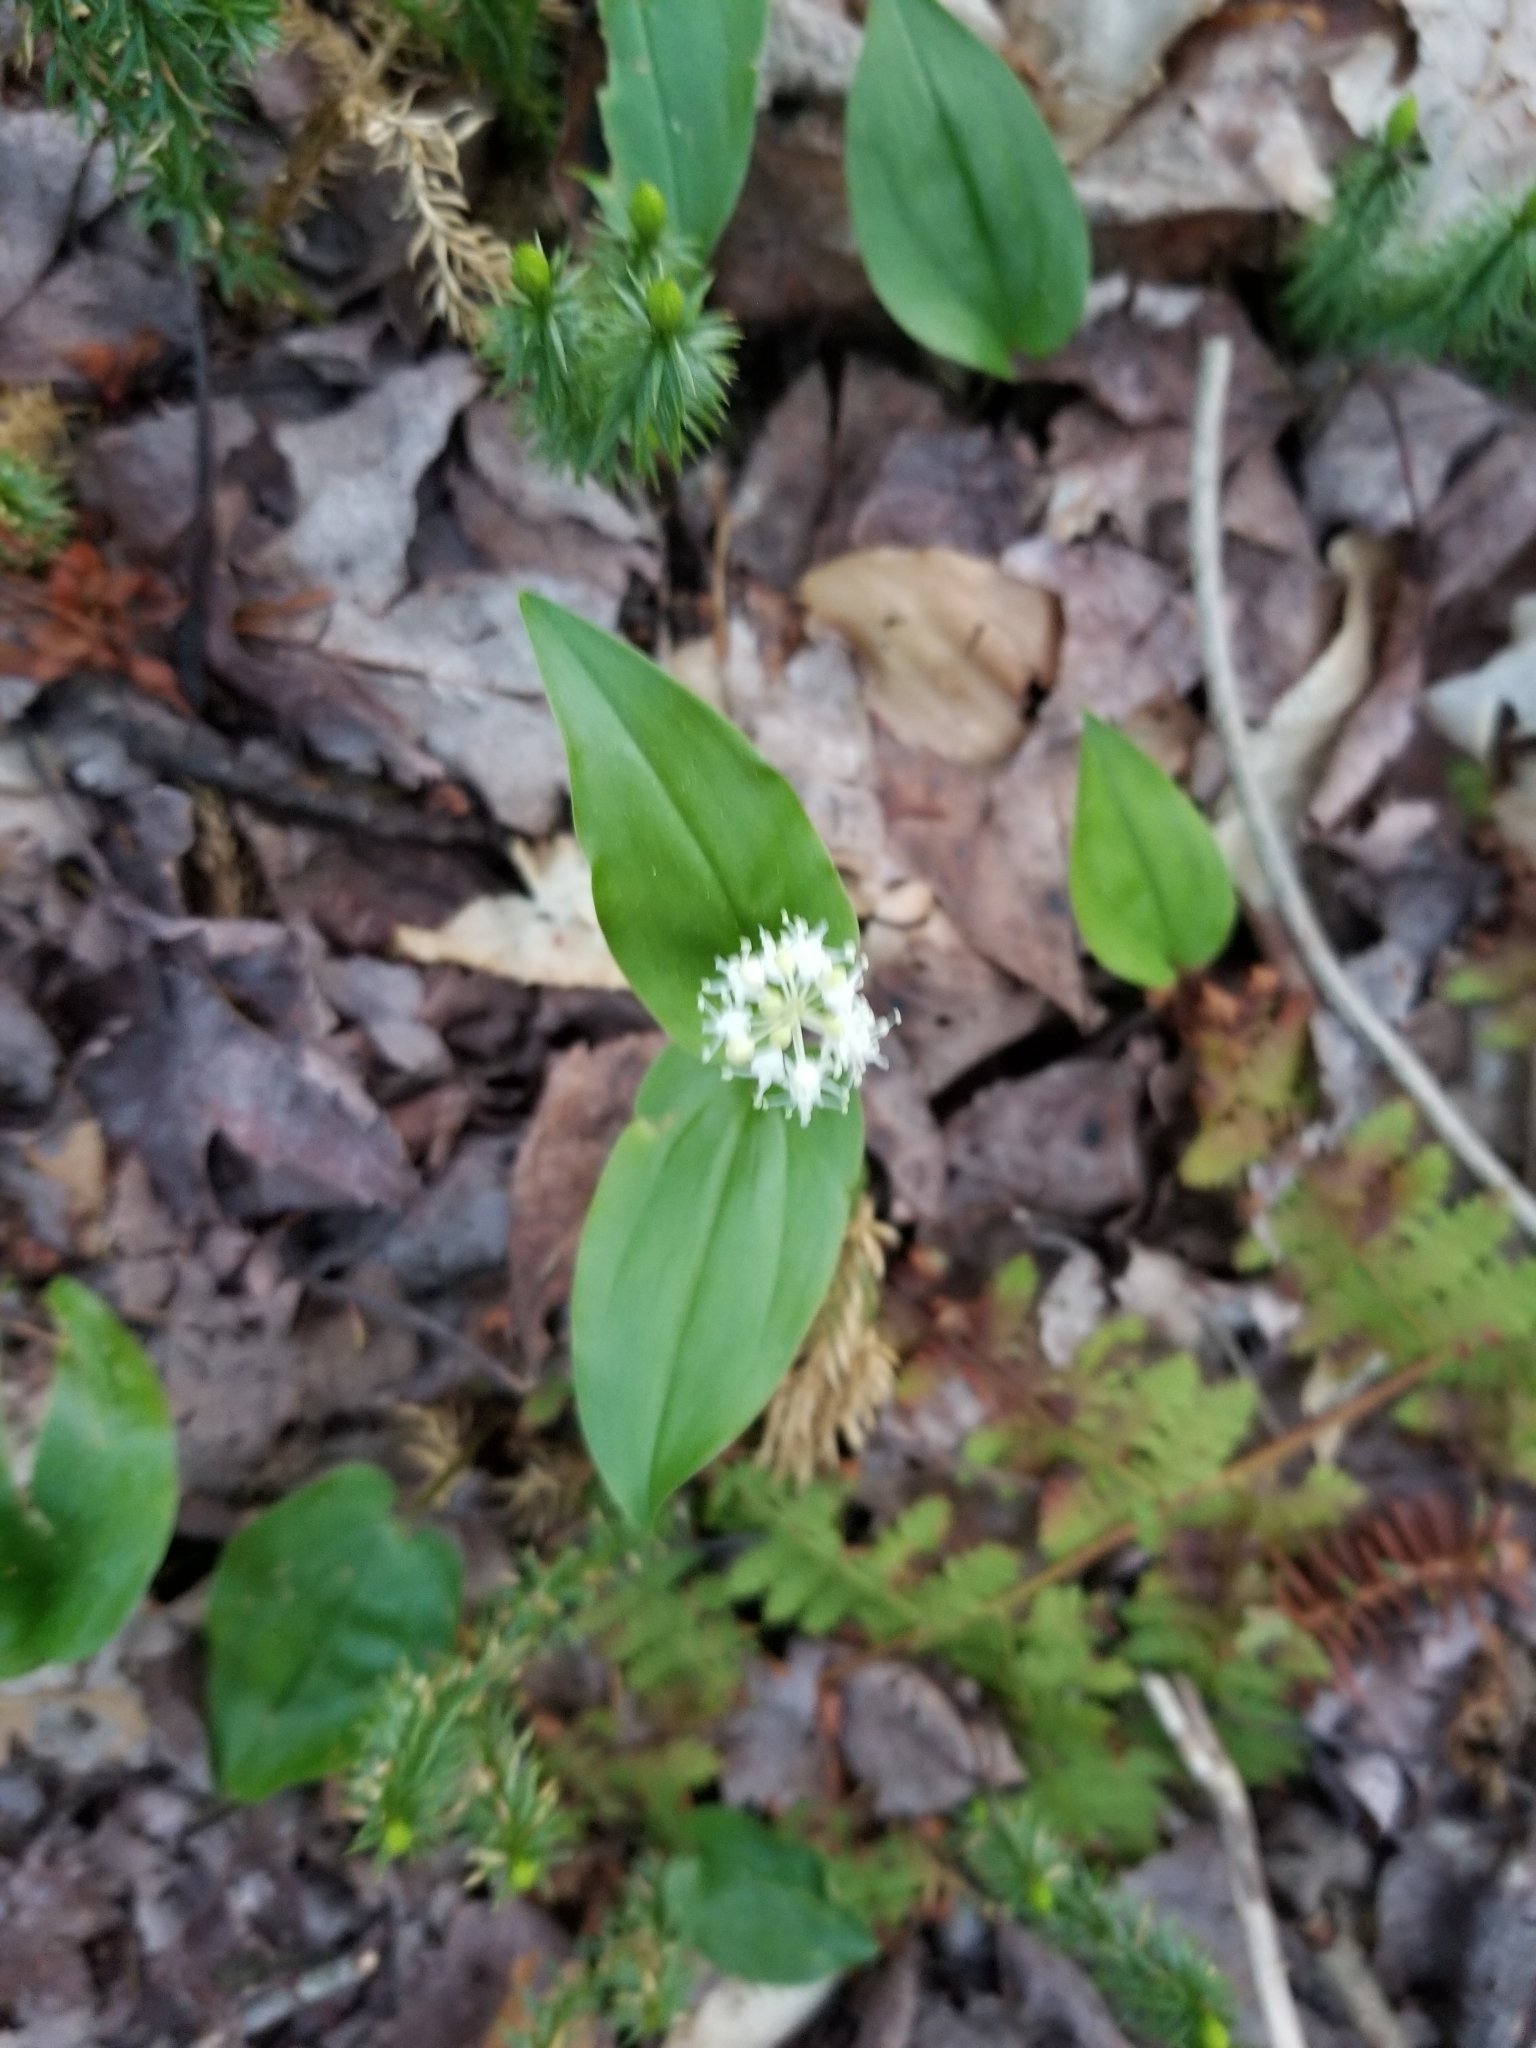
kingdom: Plantae
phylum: Tracheophyta
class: Liliopsida
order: Asparagales
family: Asparagaceae
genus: Maianthemum
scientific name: Maianthemum canadense
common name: False lily-of-the-valley
